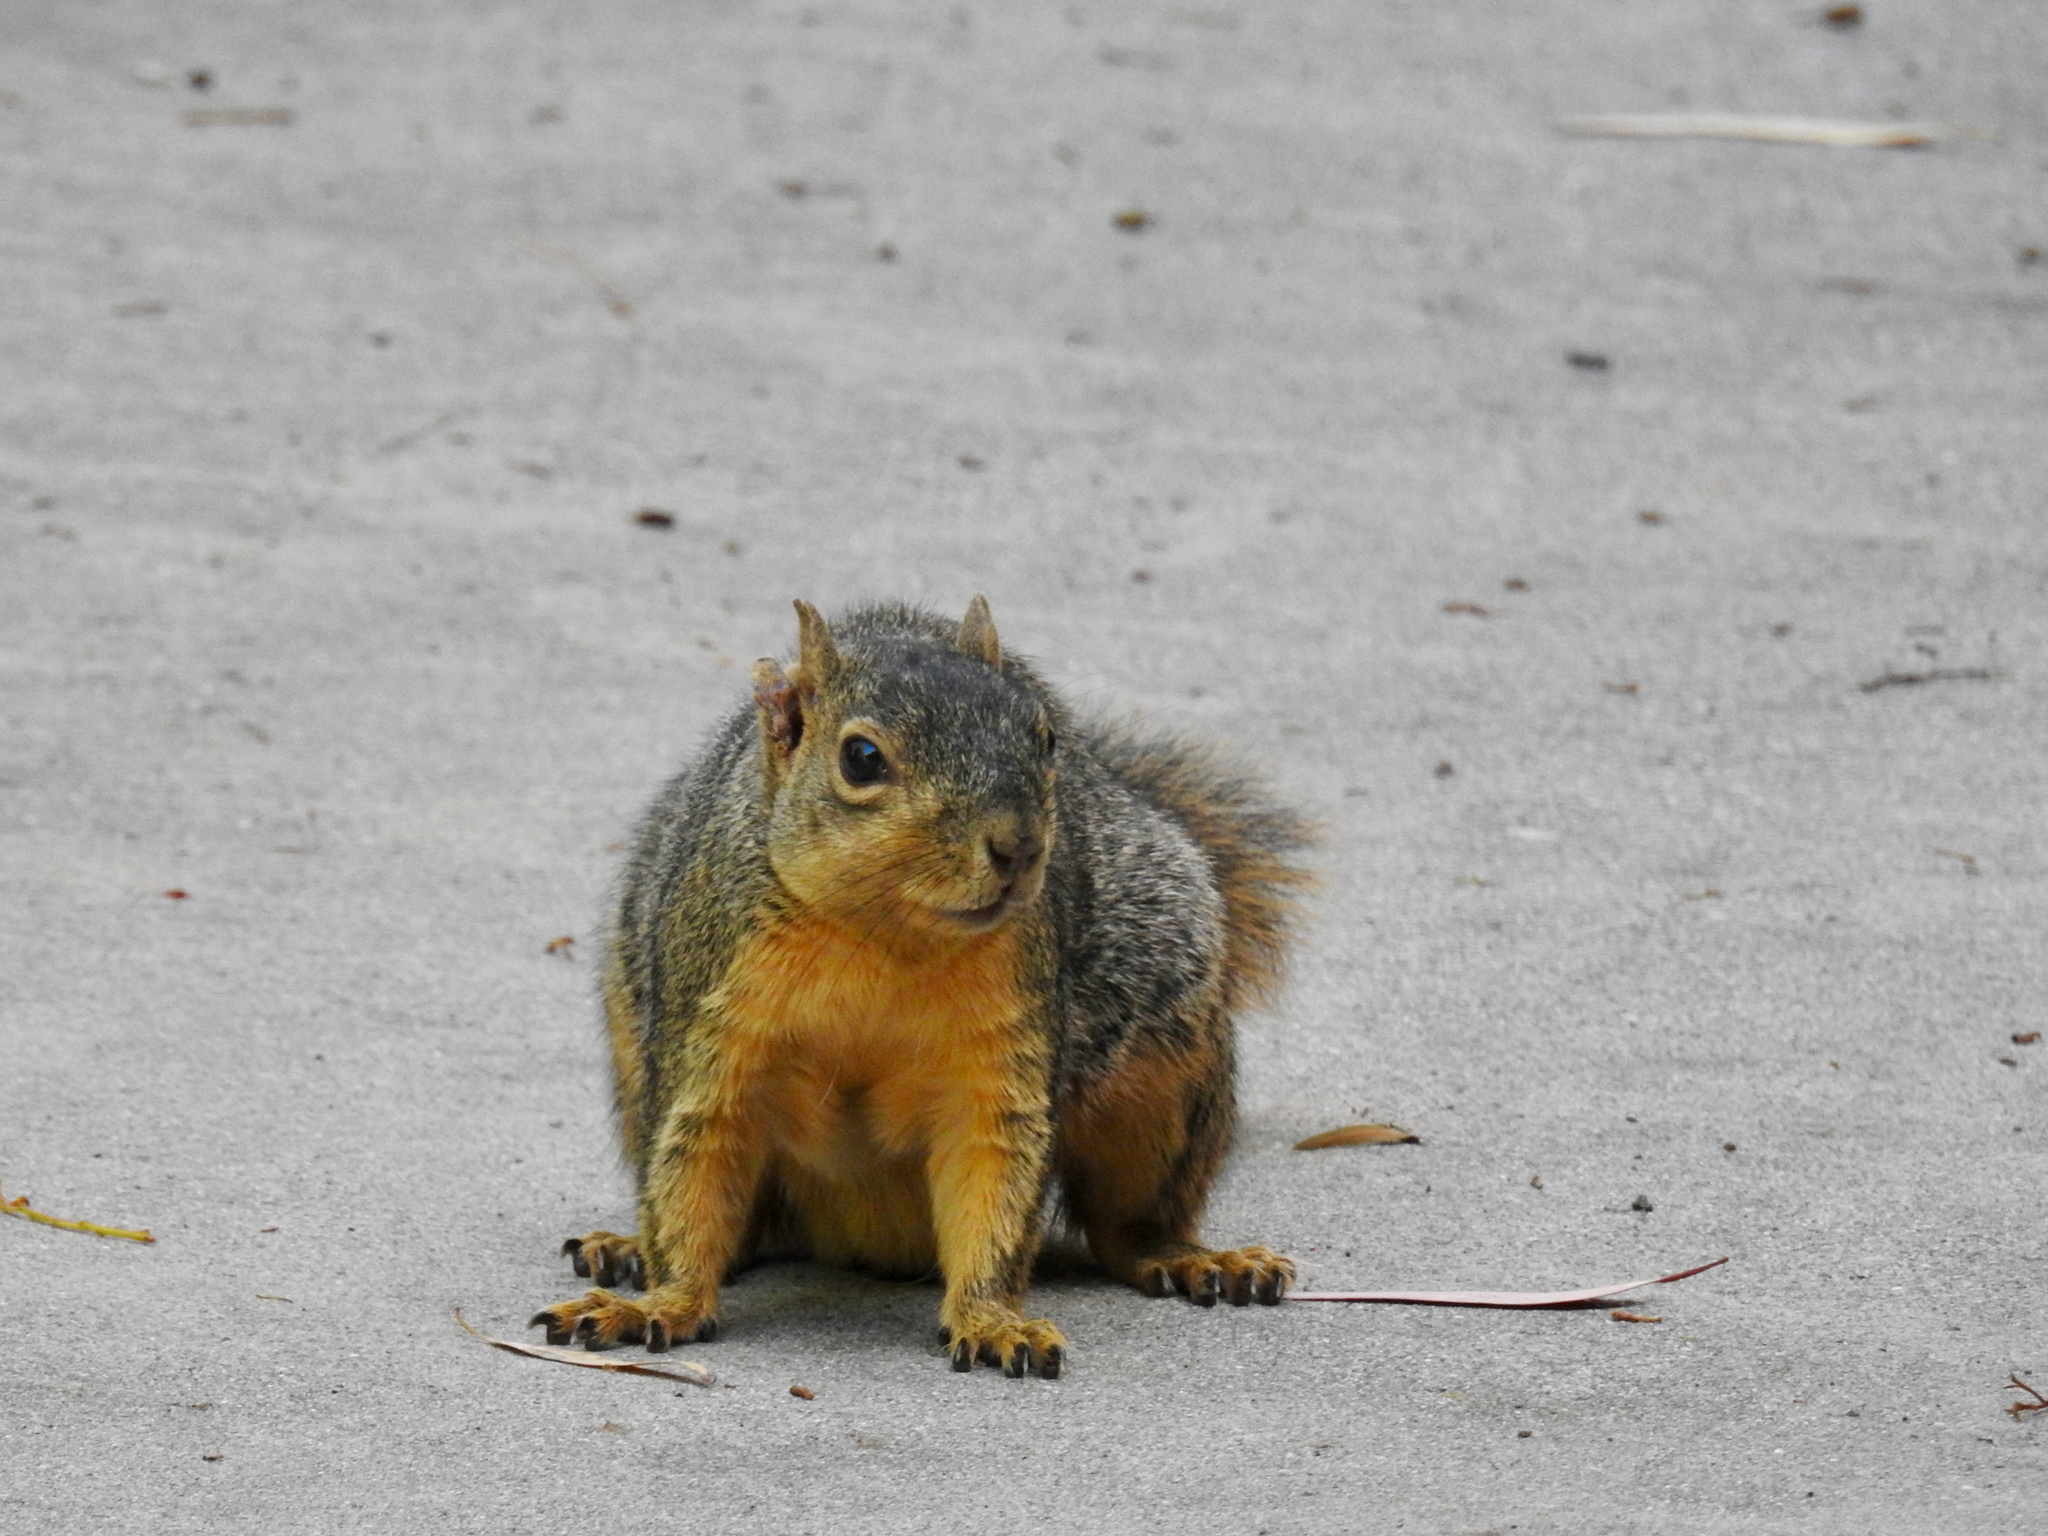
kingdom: Animalia
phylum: Chordata
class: Mammalia
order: Rodentia
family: Sciuridae
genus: Sciurus
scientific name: Sciurus niger
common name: Fox squirrel
